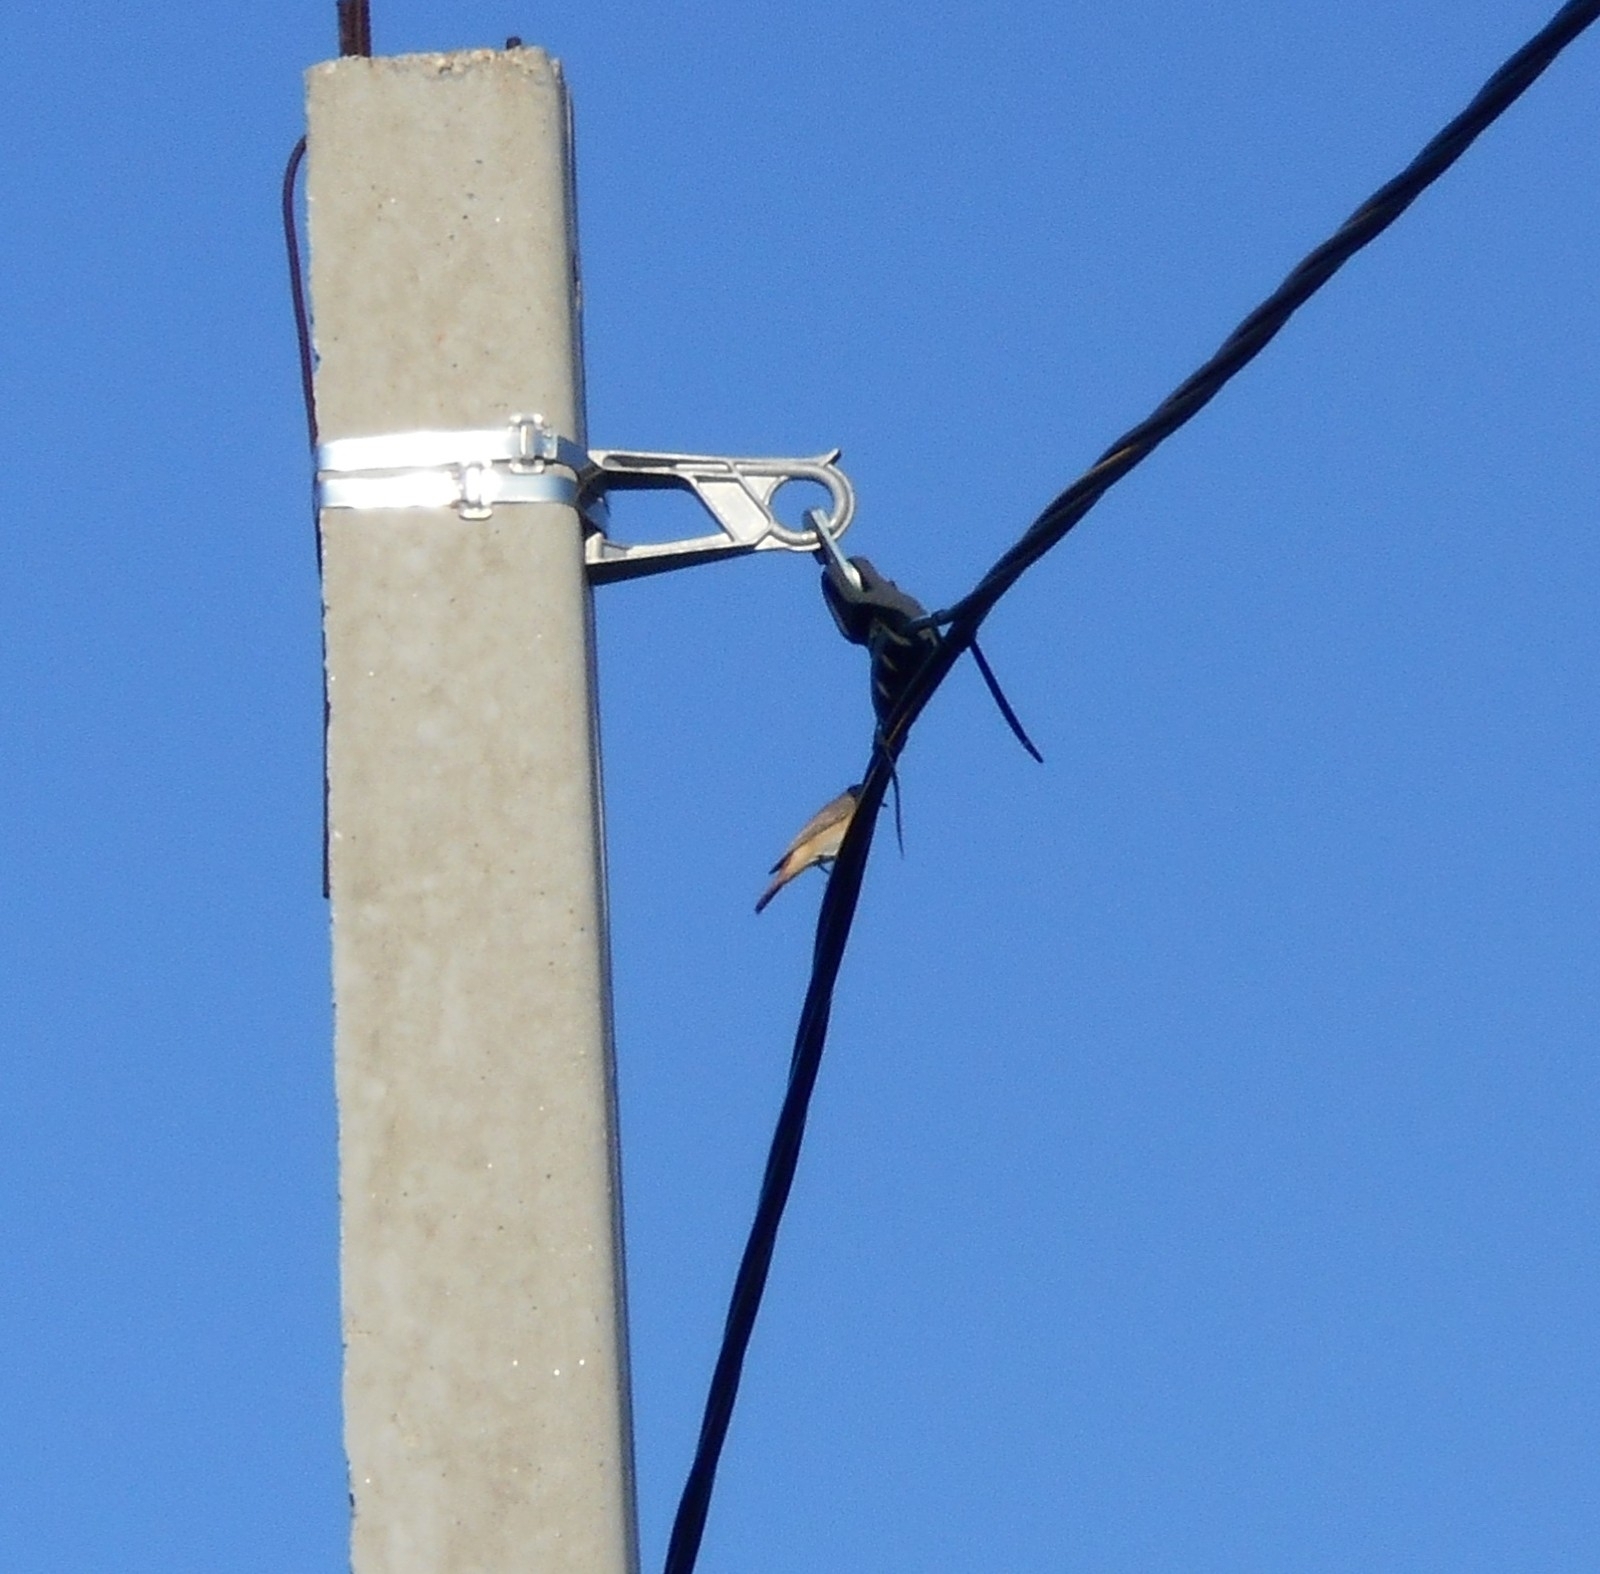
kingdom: Animalia
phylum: Chordata
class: Aves
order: Passeriformes
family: Muscicapidae
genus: Muscicapa
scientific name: Muscicapa striata
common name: Spotted flycatcher
